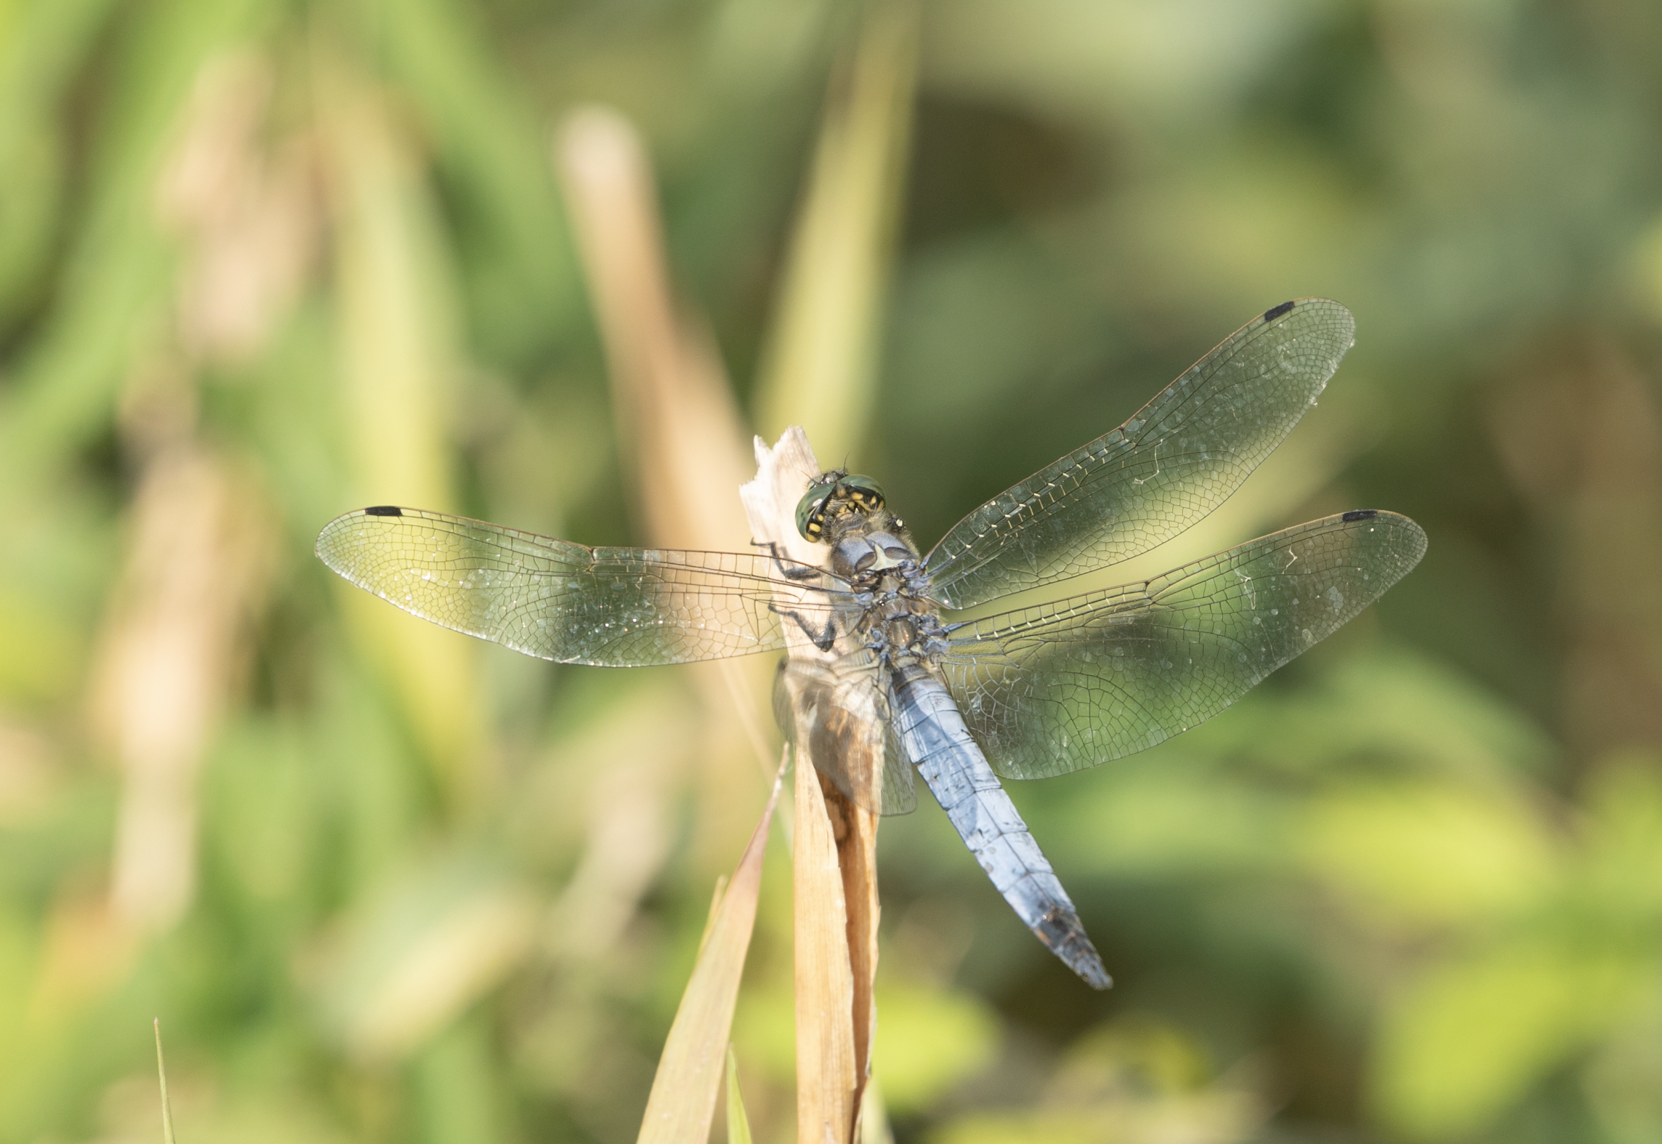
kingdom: Animalia
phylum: Arthropoda
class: Insecta
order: Odonata
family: Libellulidae
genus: Orthetrum
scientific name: Orthetrum cancellatum
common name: Black-tailed skimmer
